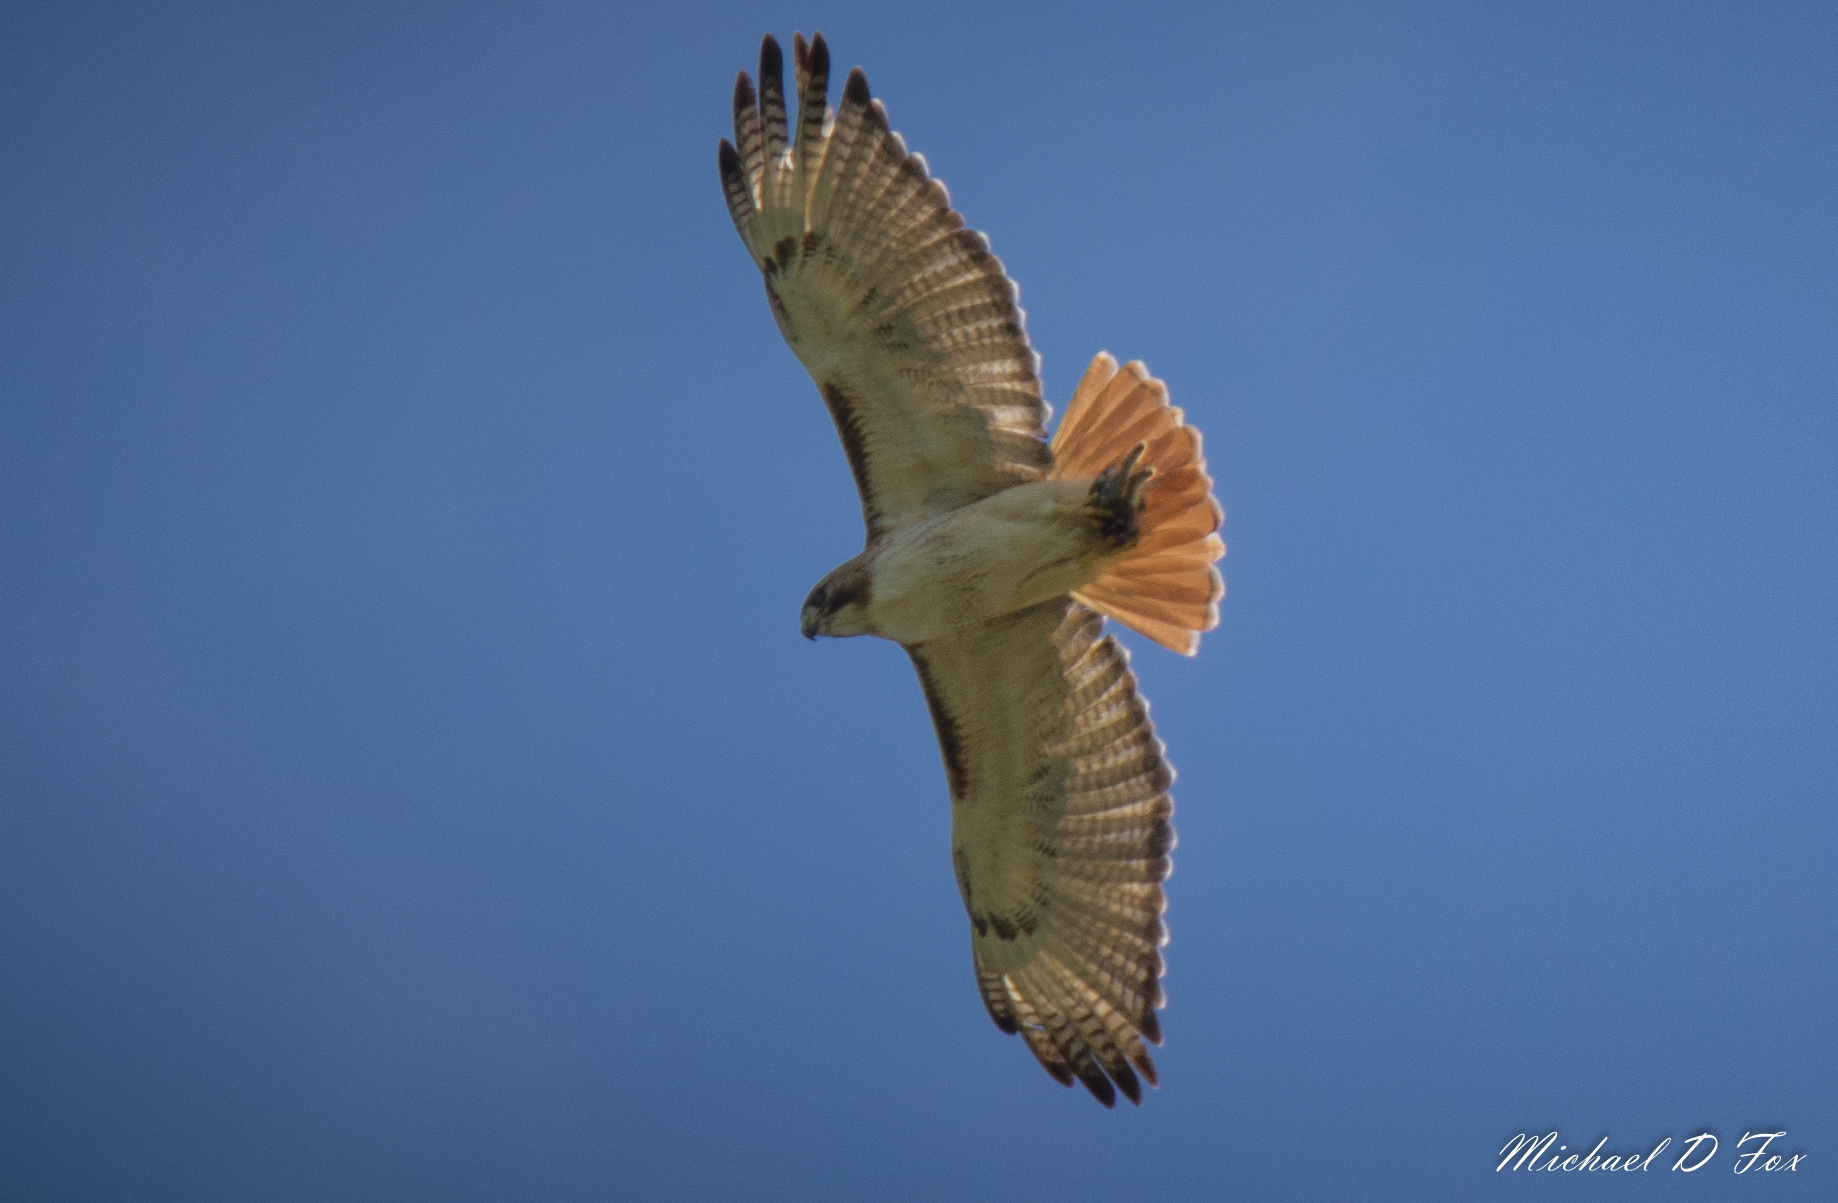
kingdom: Animalia
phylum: Chordata
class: Aves
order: Accipitriformes
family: Accipitridae
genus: Buteo
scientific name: Buteo jamaicensis
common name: Red-tailed hawk
